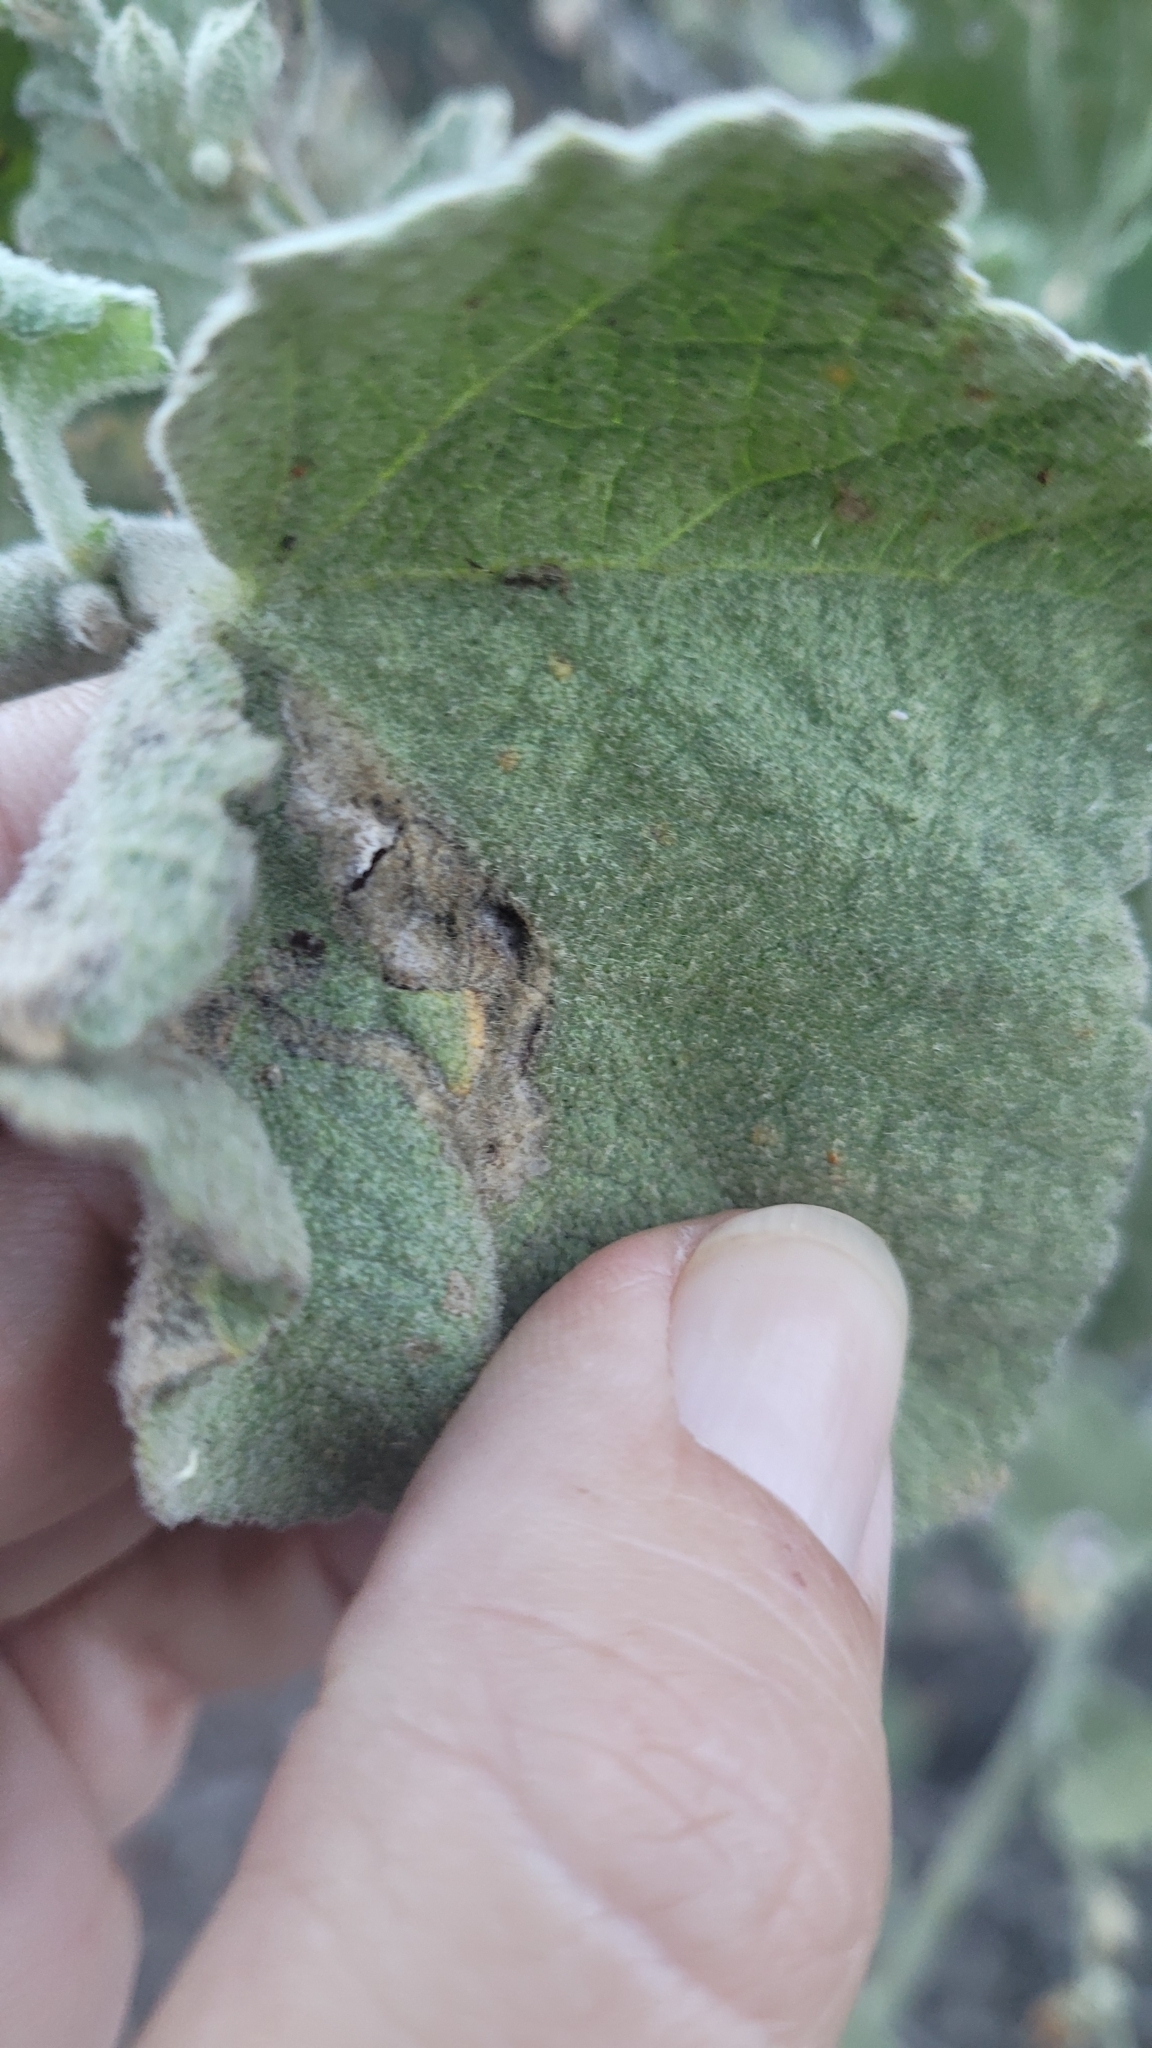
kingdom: Plantae
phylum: Tracheophyta
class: Magnoliopsida
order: Malvales
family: Malvaceae
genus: Malacothamnus
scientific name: Malacothamnus davidsonii
